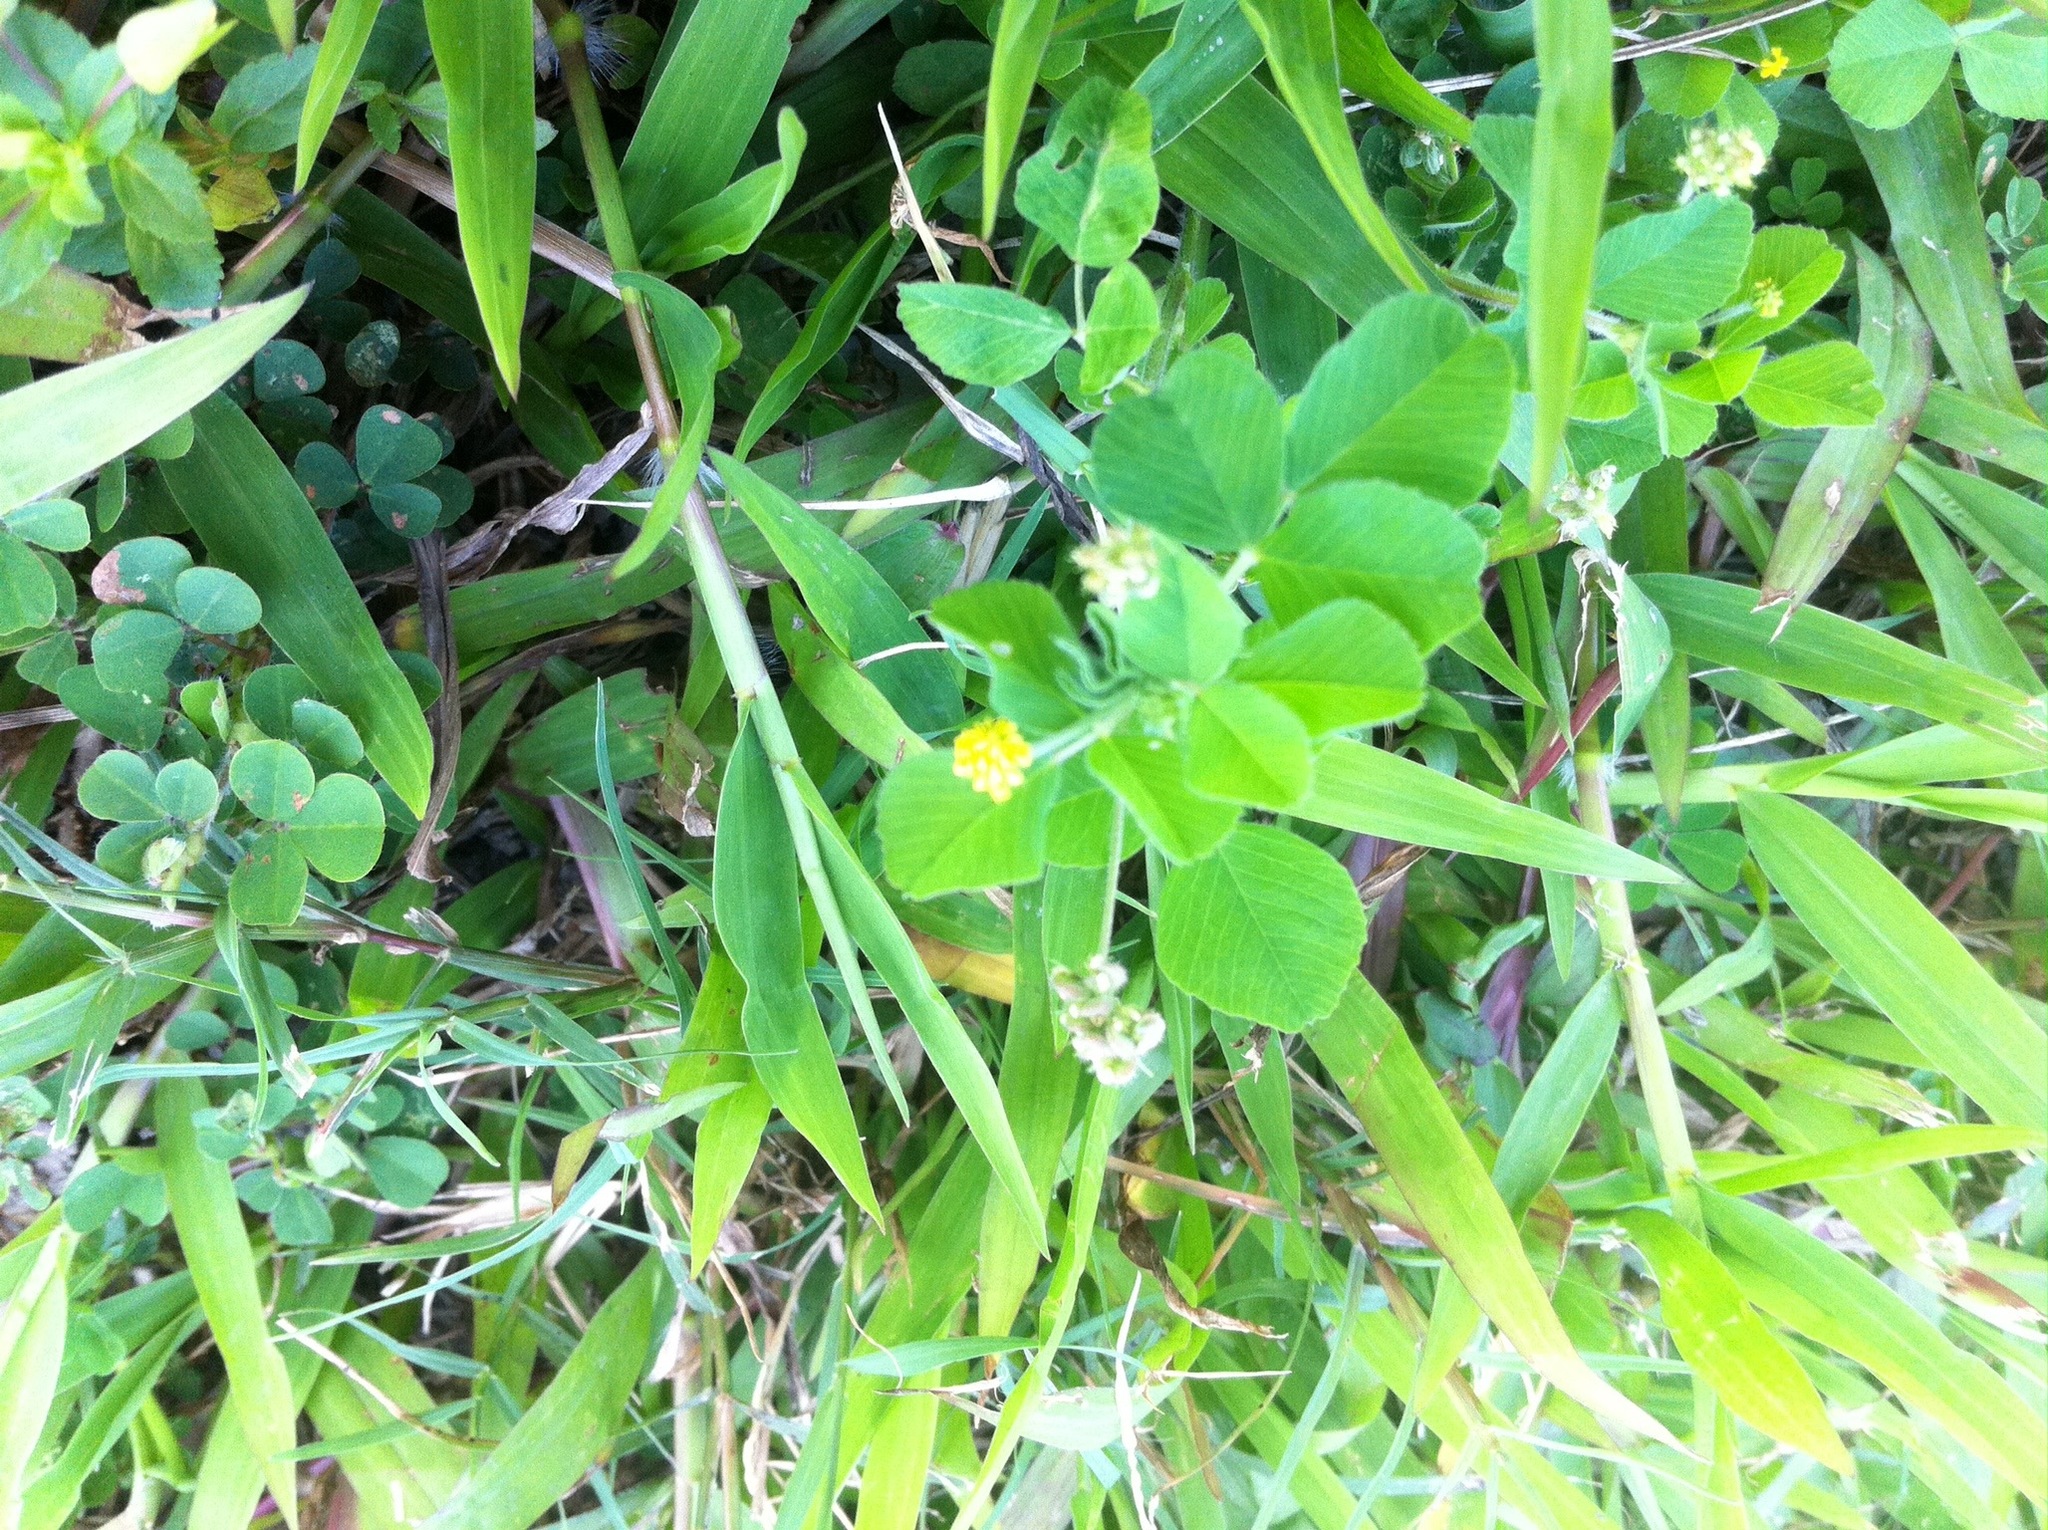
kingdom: Plantae
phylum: Tracheophyta
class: Magnoliopsida
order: Fabales
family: Fabaceae
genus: Medicago
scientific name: Medicago lupulina
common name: Black medick
